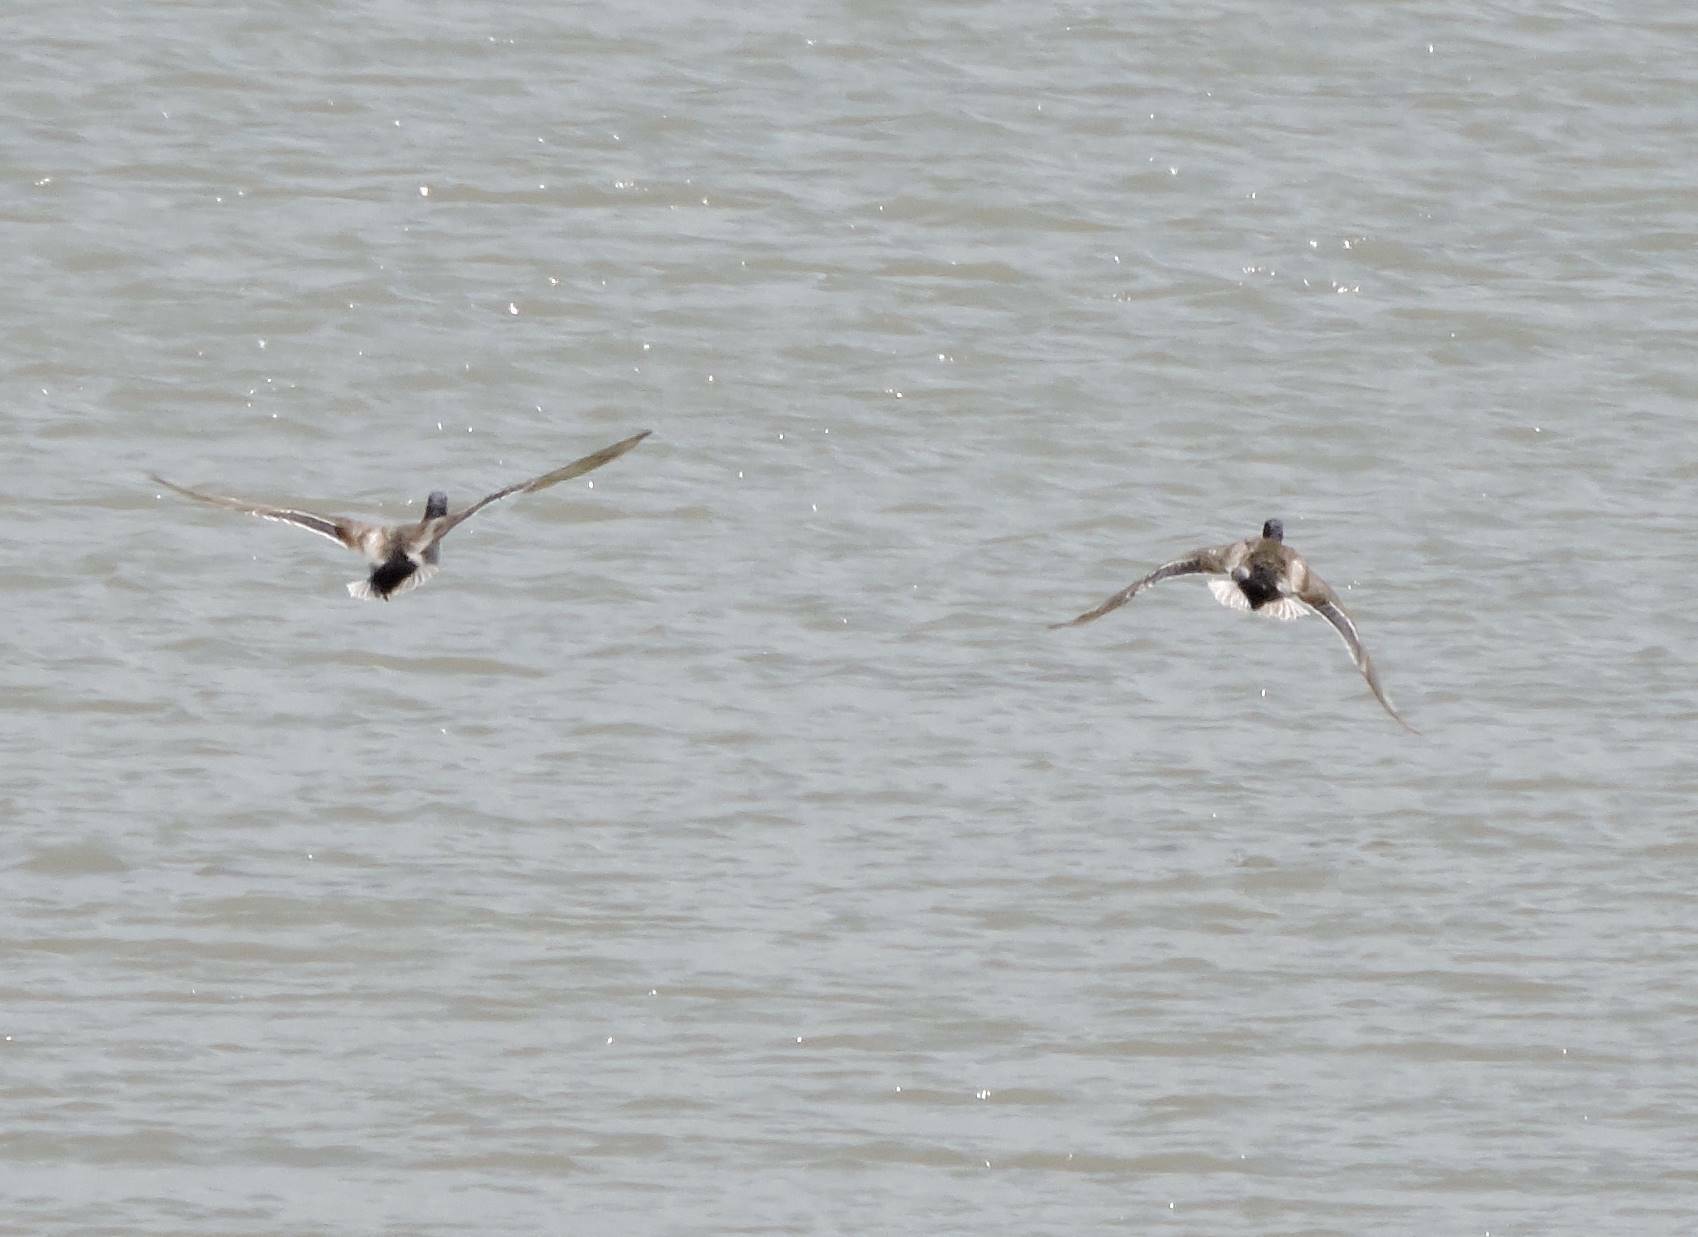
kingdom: Animalia
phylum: Chordata
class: Aves
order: Anseriformes
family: Anatidae
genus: Anas
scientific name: Anas platyrhynchos
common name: Mallard
